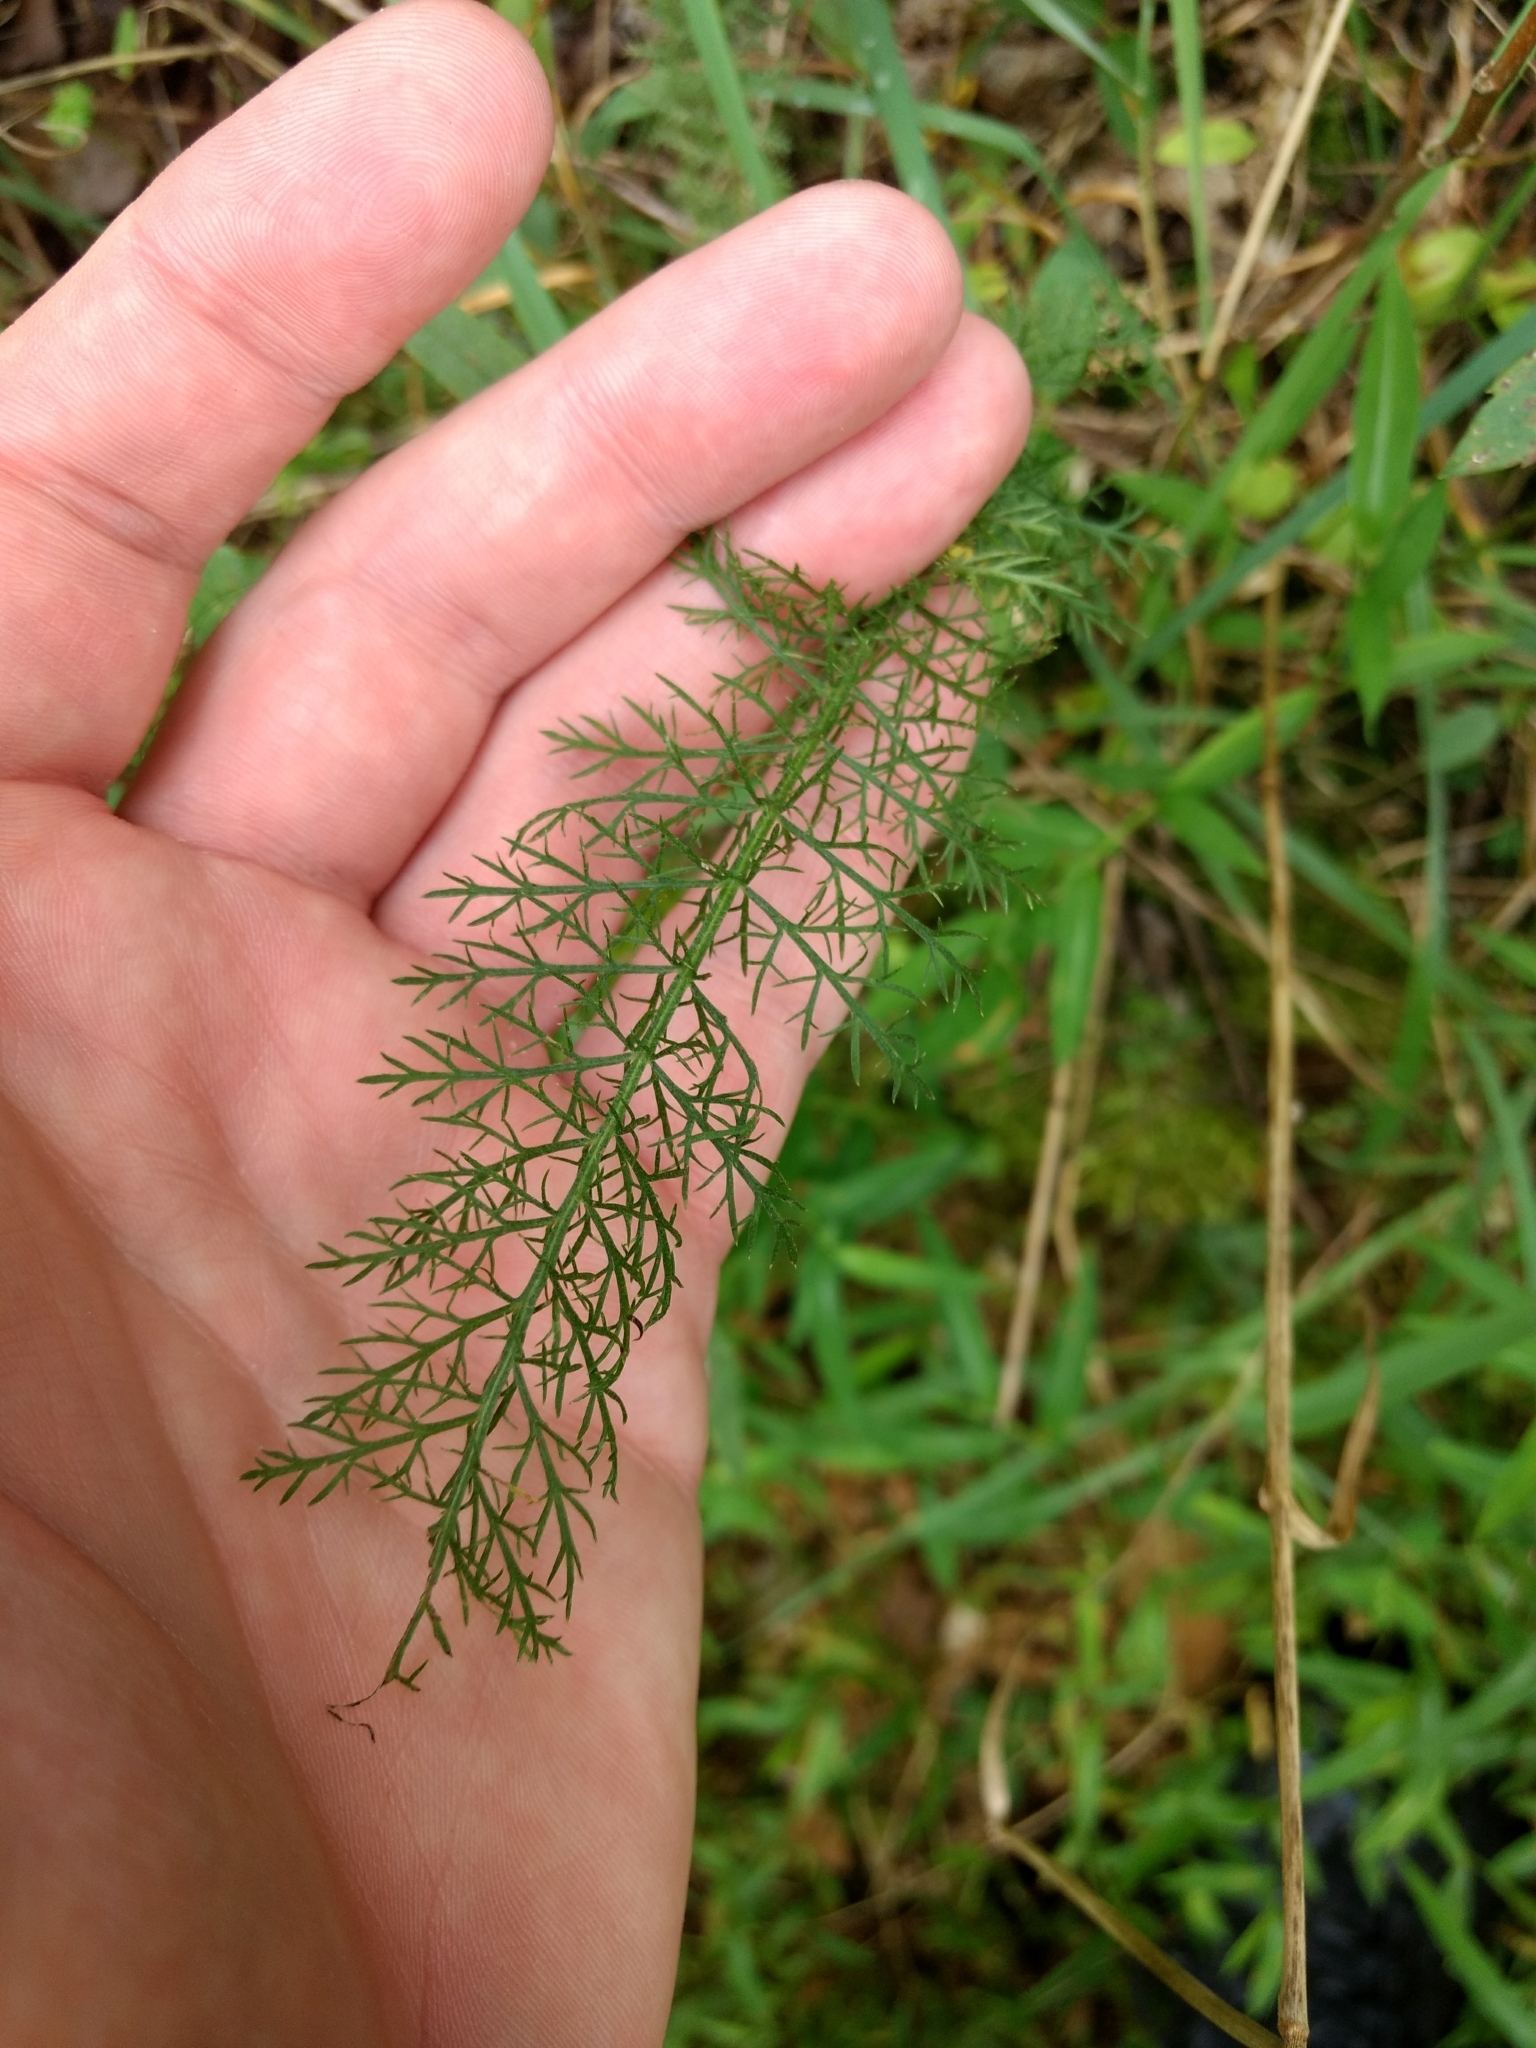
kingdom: Plantae
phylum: Tracheophyta
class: Magnoliopsida
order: Asterales
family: Asteraceae
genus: Achillea
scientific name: Achillea millefolium
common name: Yarrow
